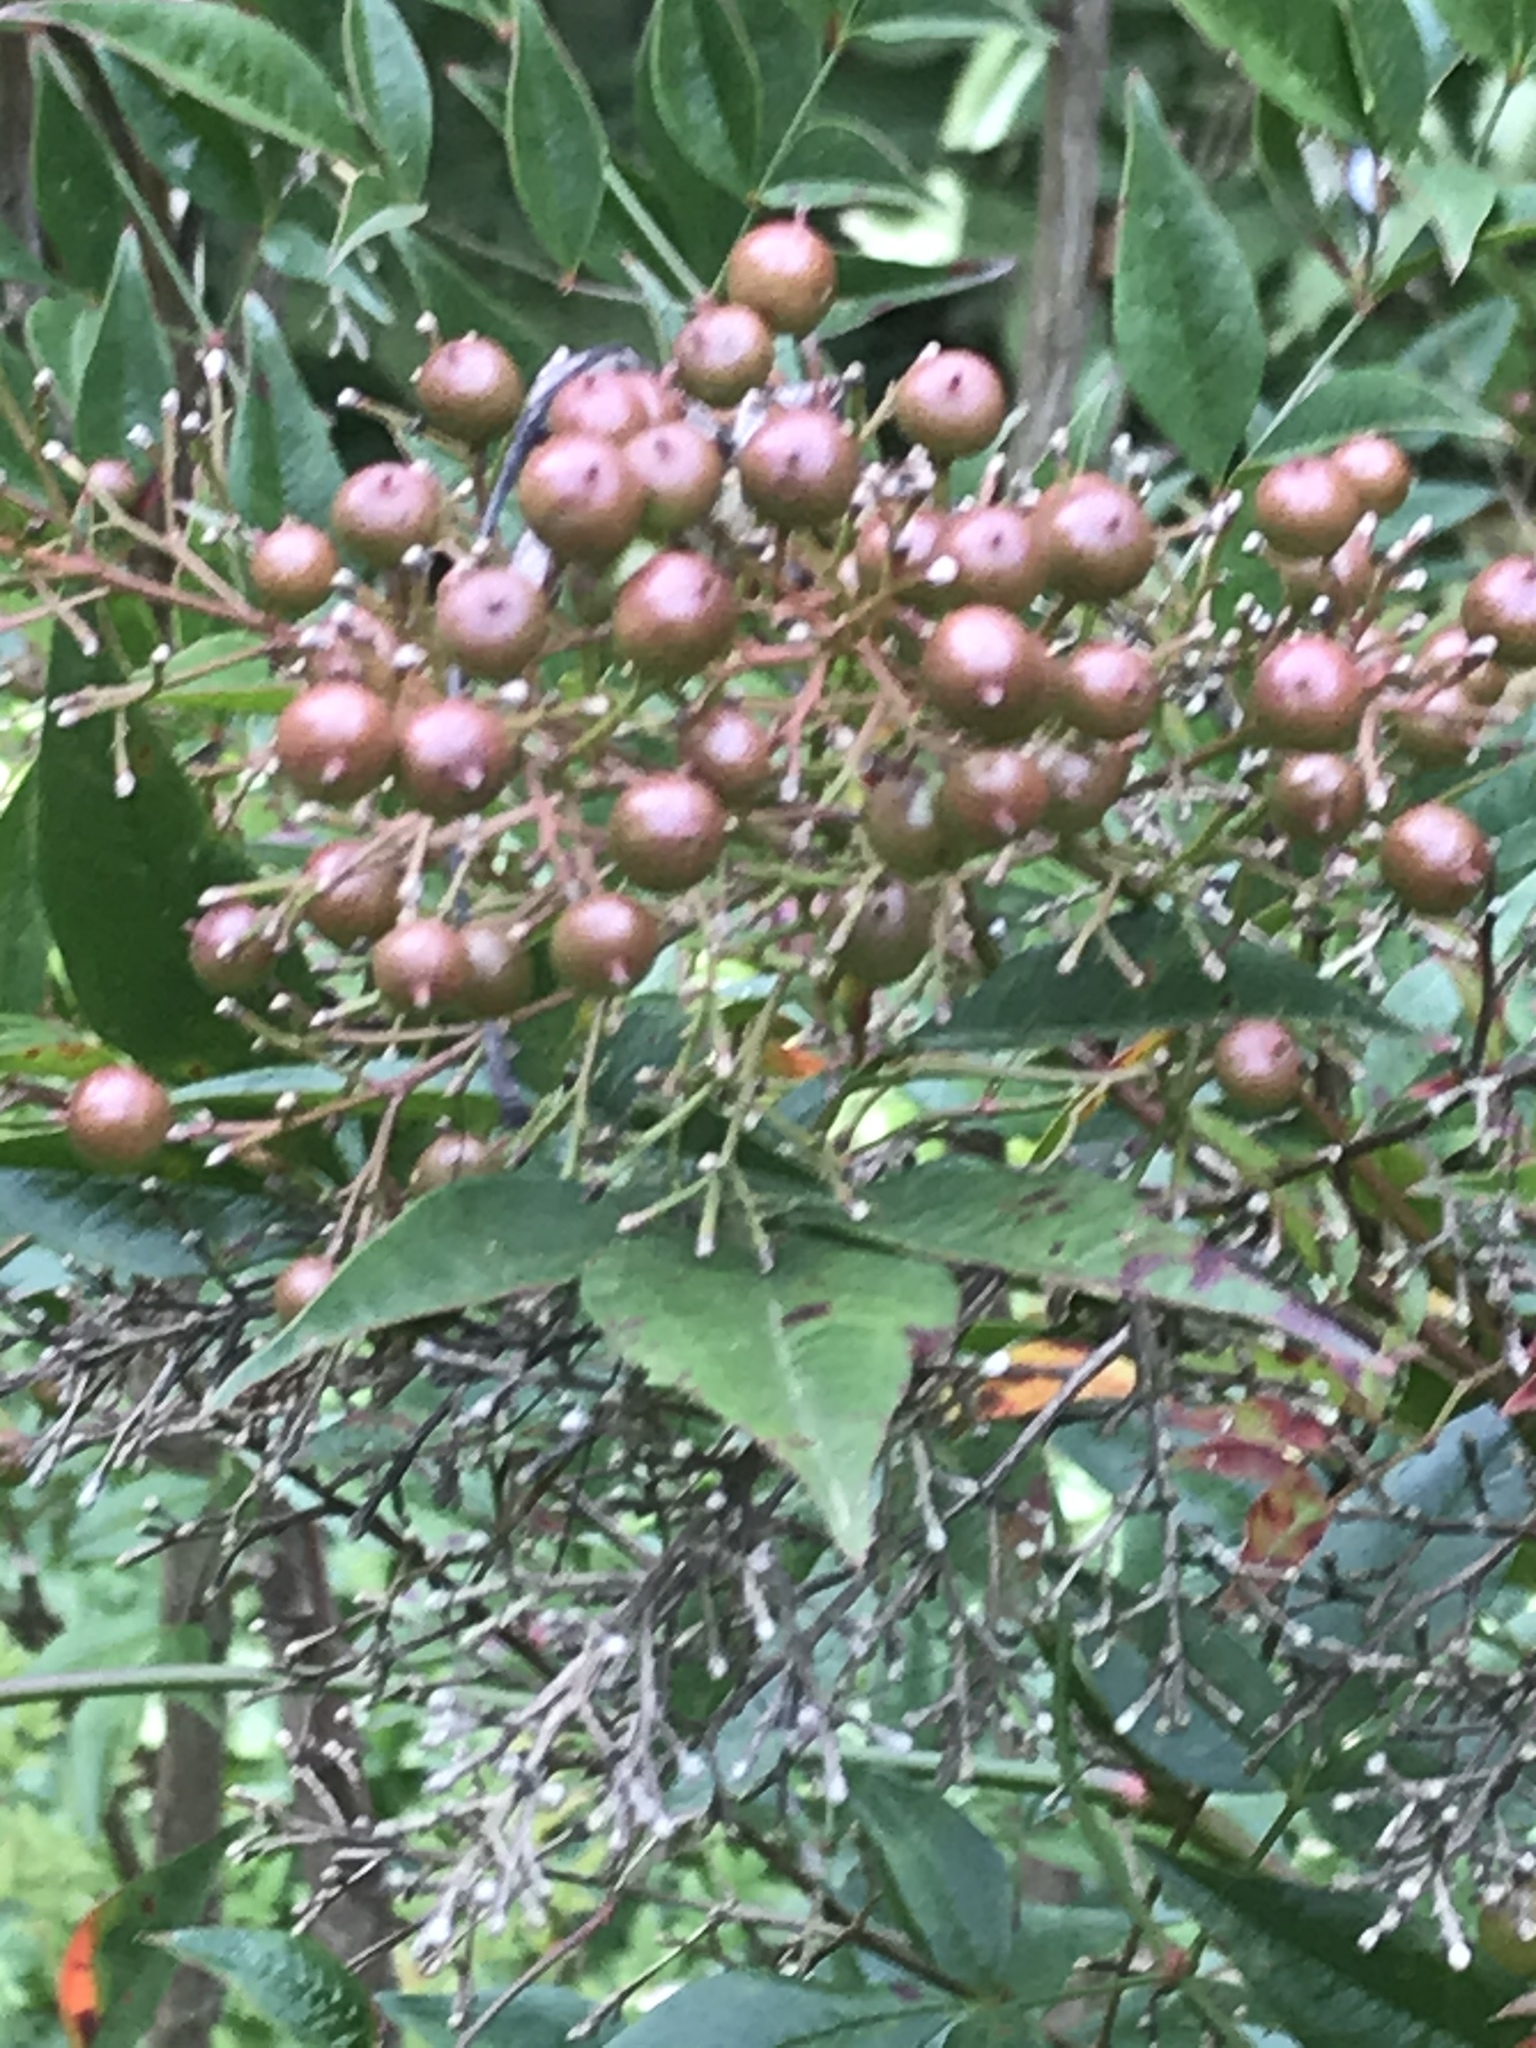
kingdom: Plantae
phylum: Tracheophyta
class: Magnoliopsida
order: Ranunculales
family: Berberidaceae
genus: Nandina
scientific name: Nandina domestica
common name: Sacred bamboo
